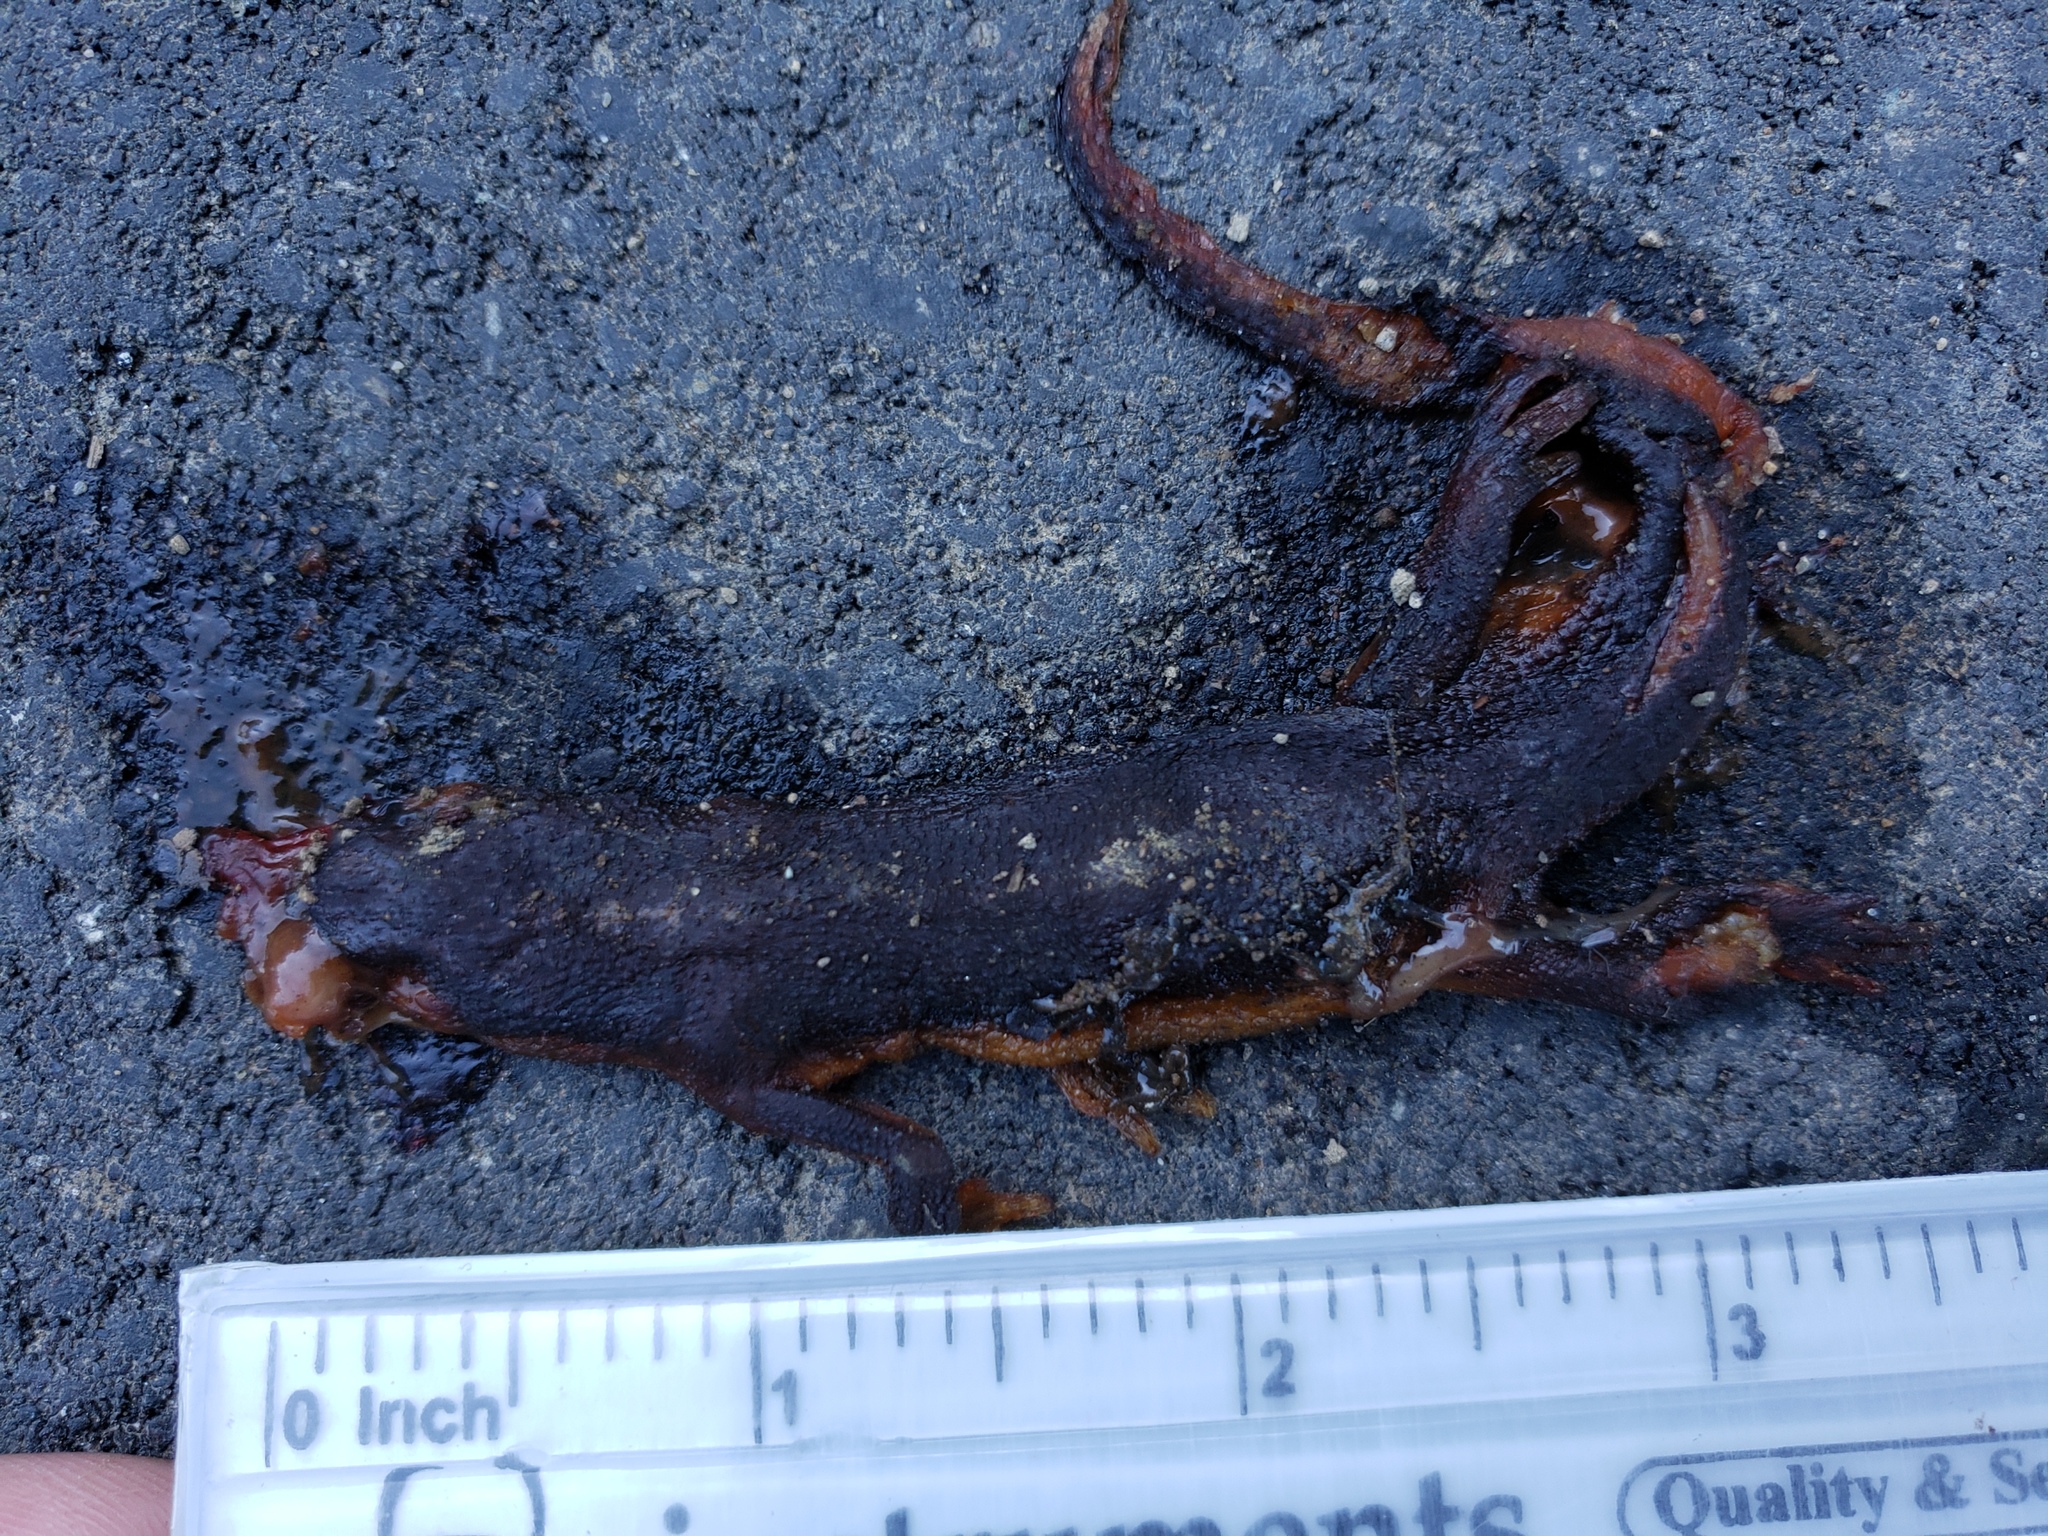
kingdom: Animalia
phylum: Chordata
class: Amphibia
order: Caudata
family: Salamandridae
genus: Taricha
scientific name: Taricha
